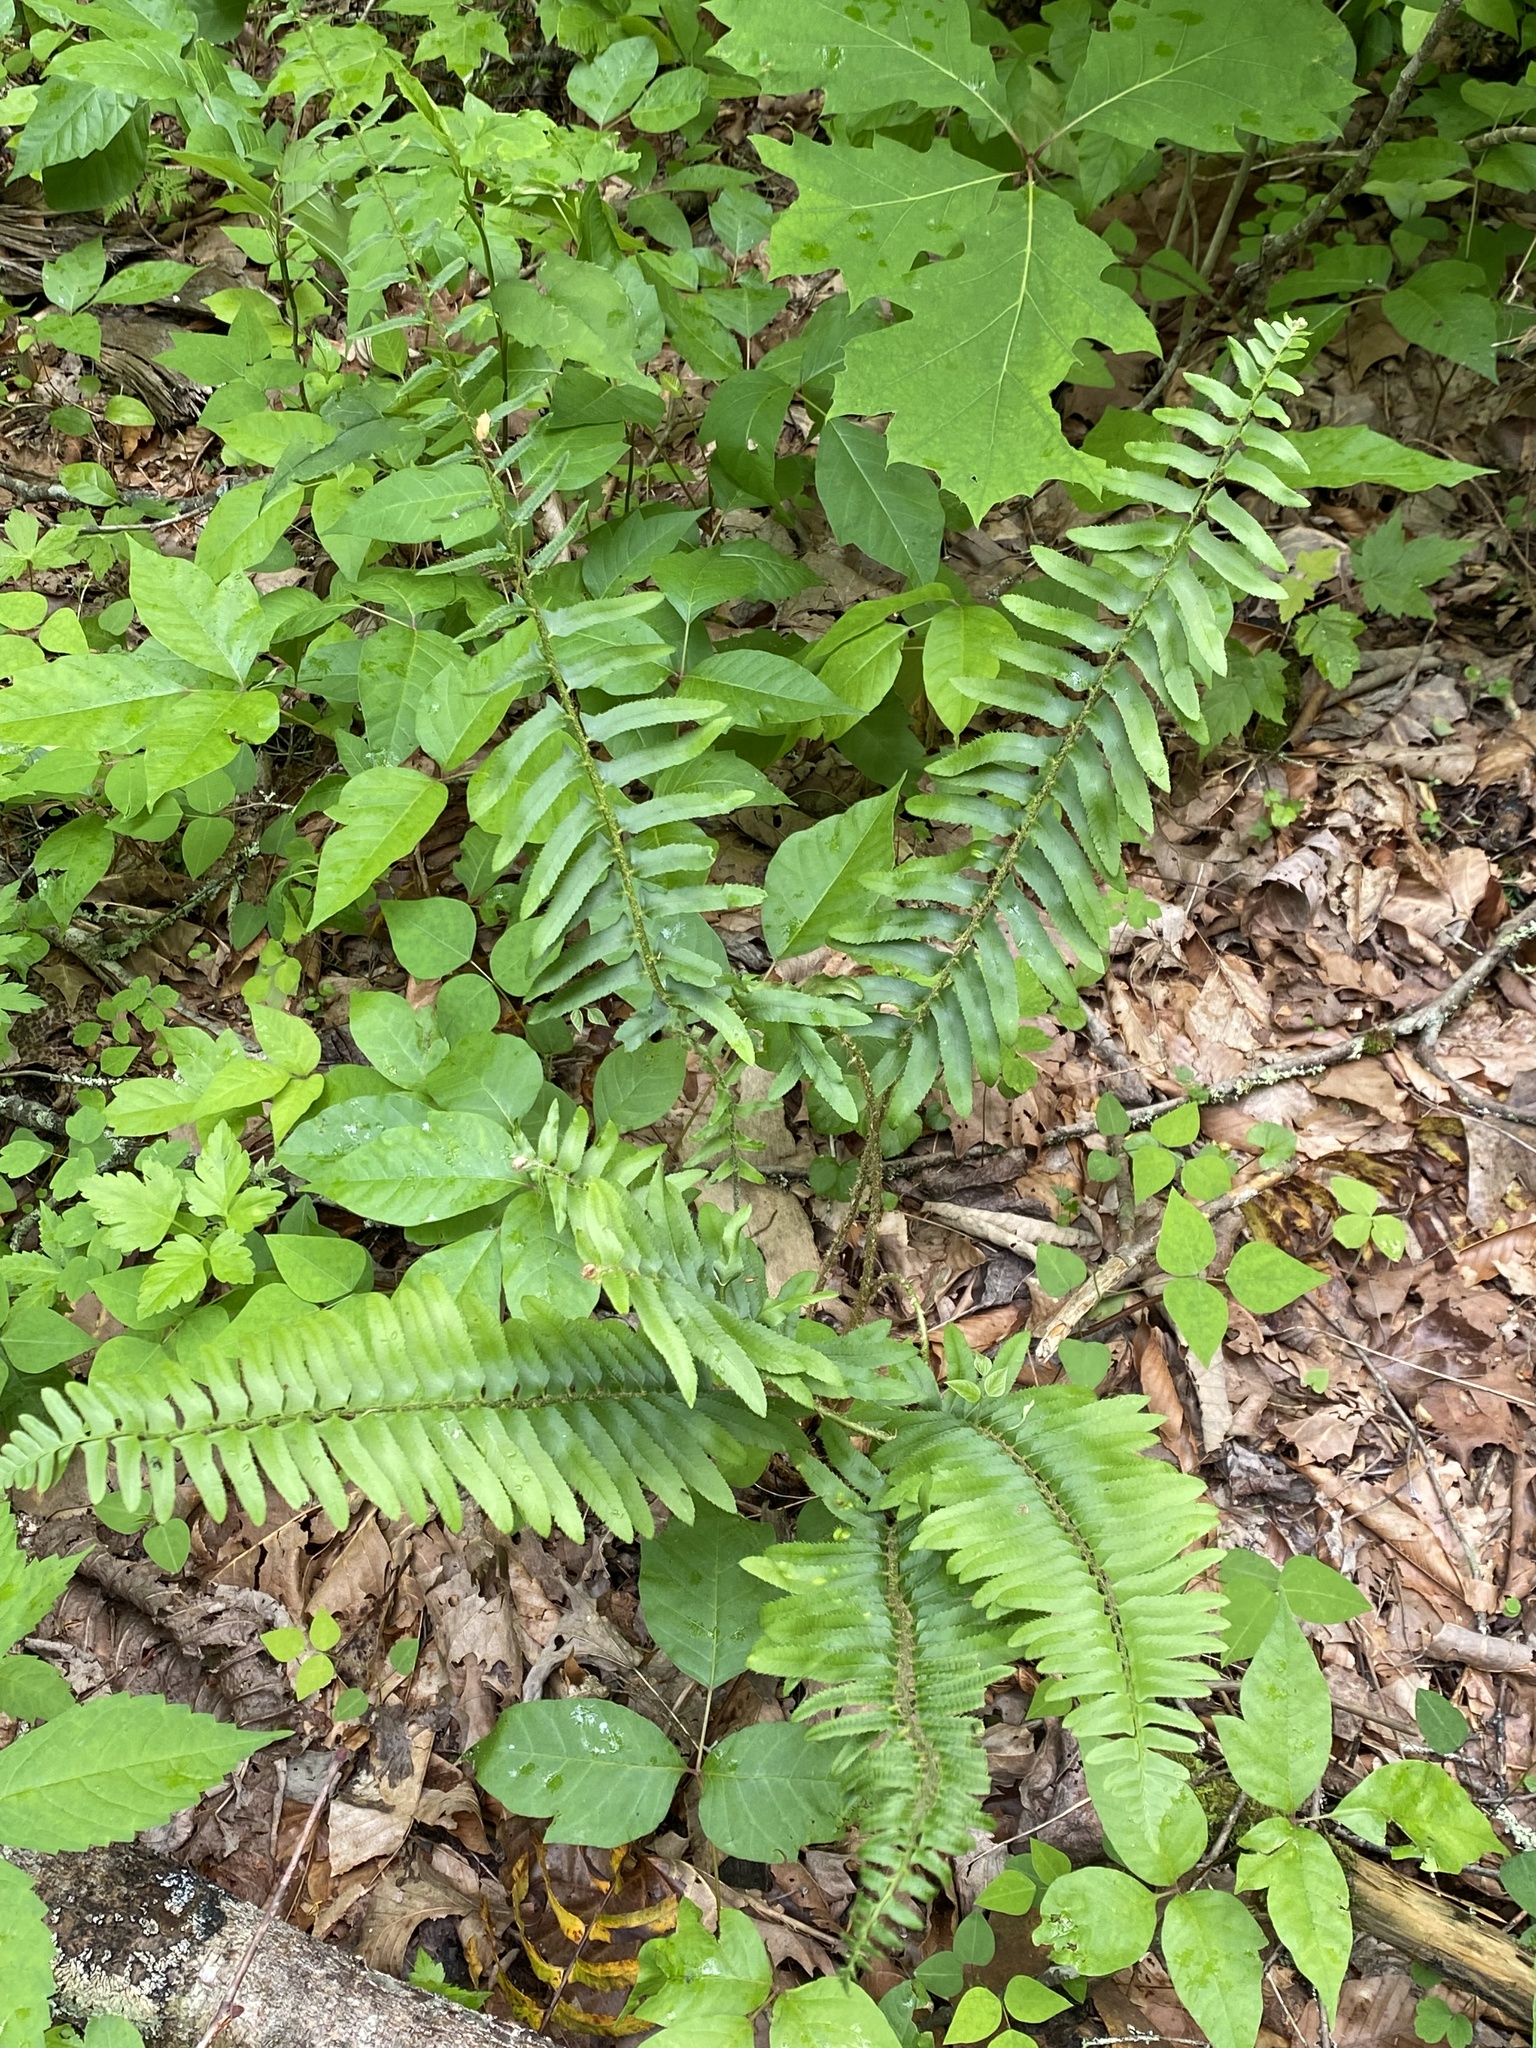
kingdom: Plantae
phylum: Tracheophyta
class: Polypodiopsida
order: Polypodiales
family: Dryopteridaceae
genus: Polystichum
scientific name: Polystichum acrostichoides
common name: Christmas fern
